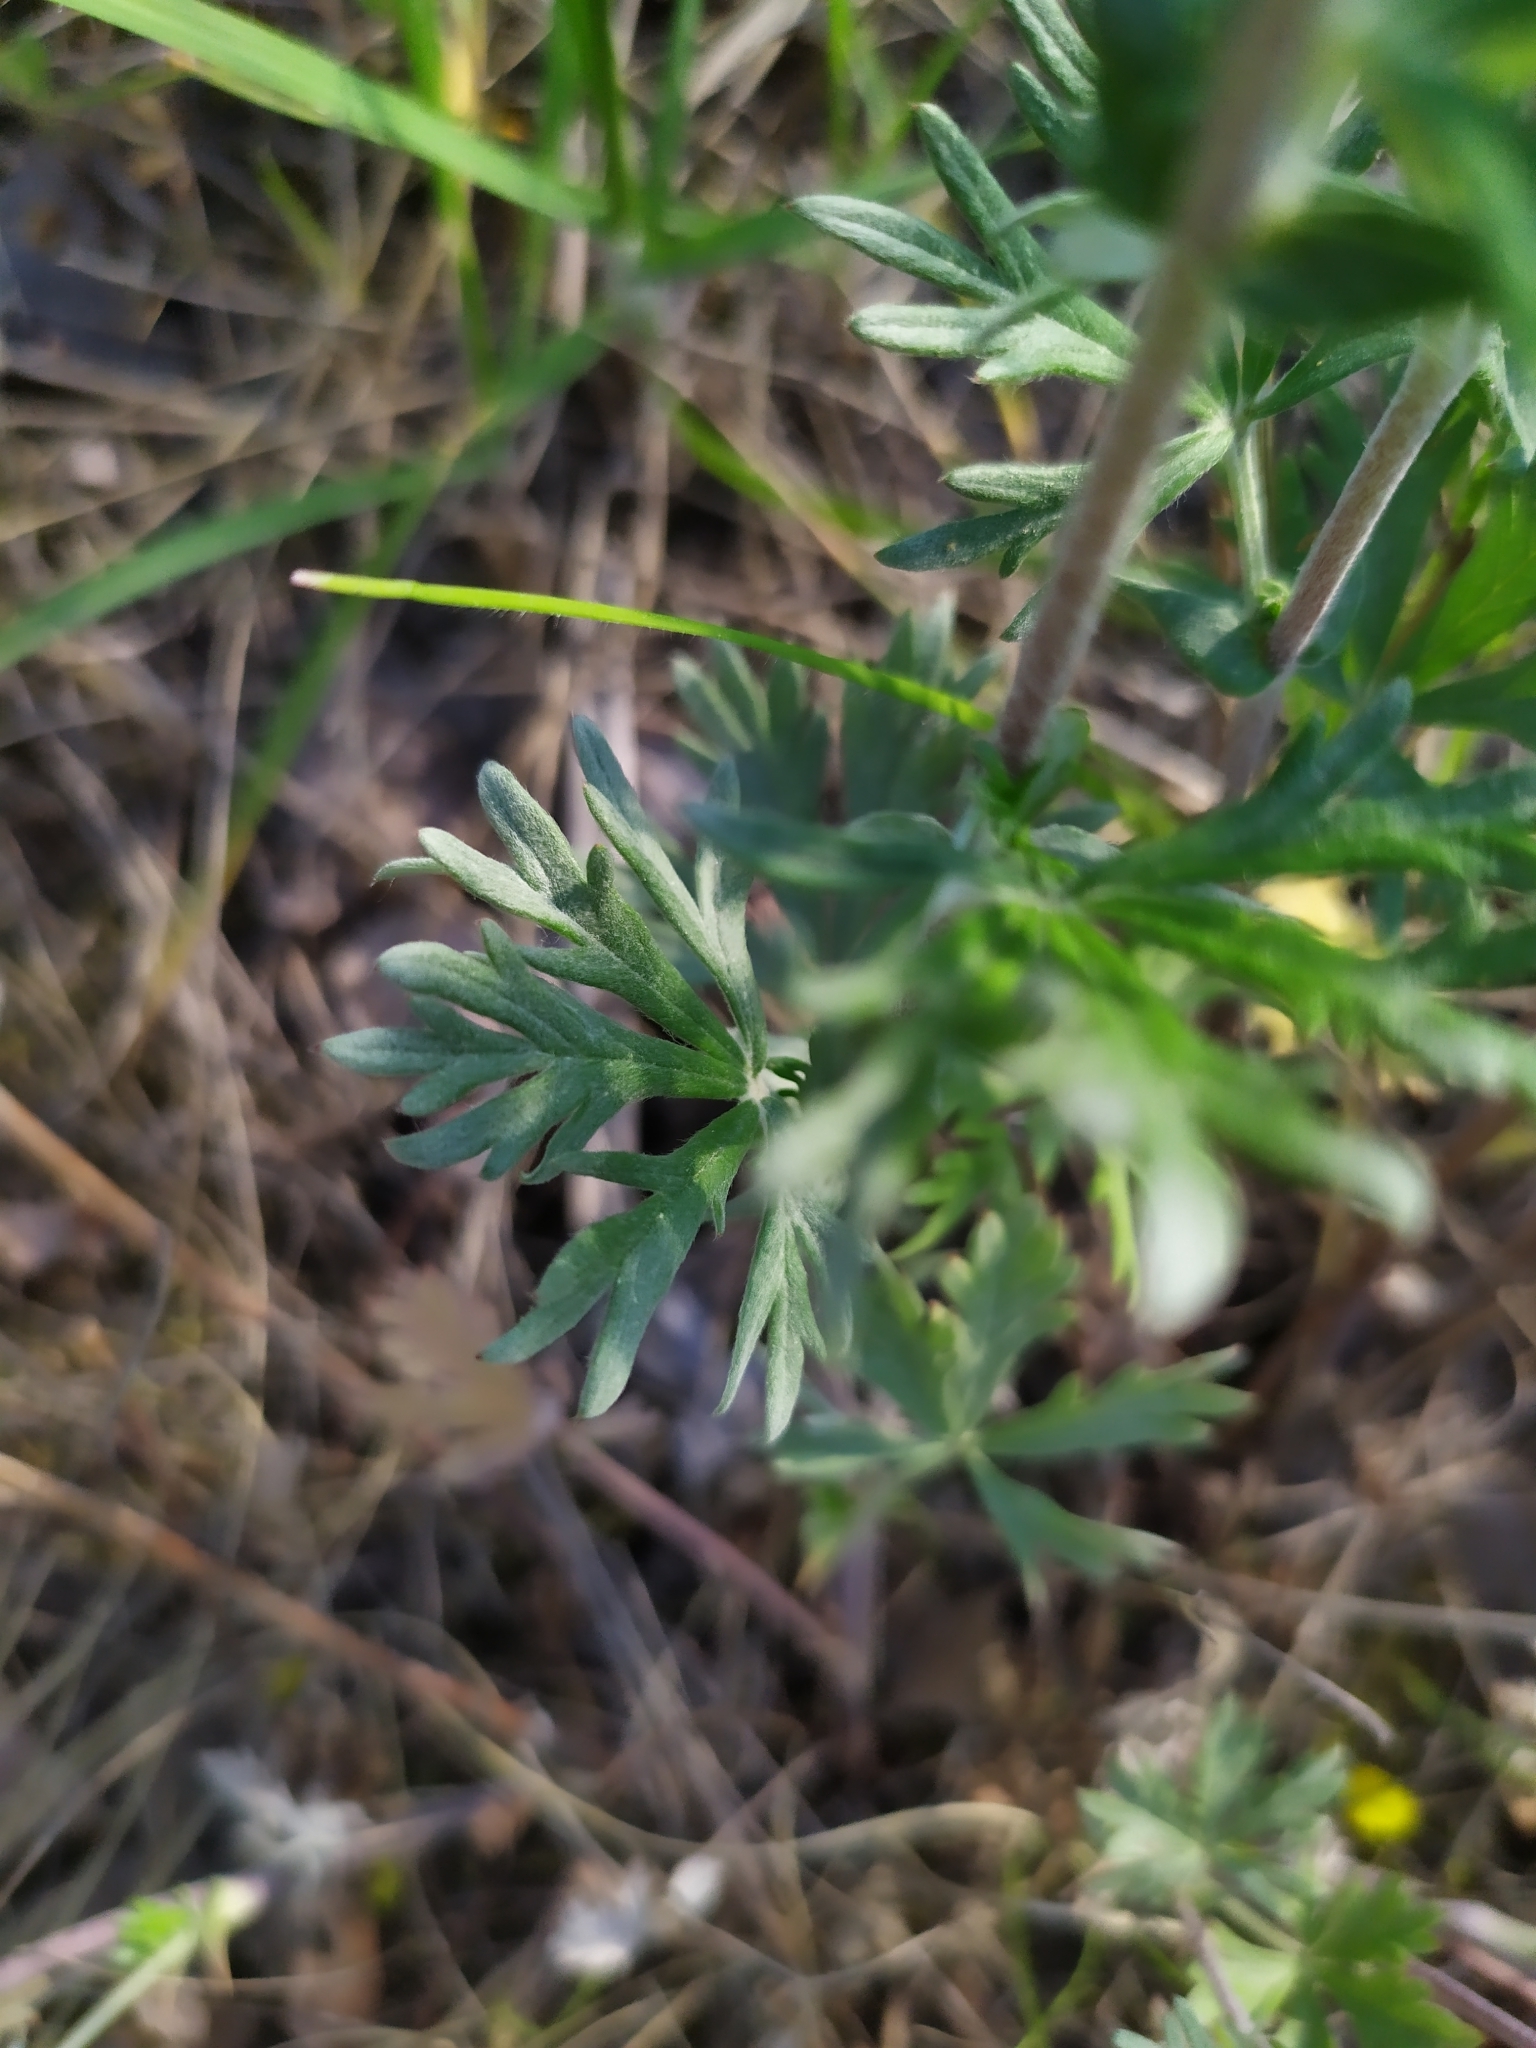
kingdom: Plantae
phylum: Tracheophyta
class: Magnoliopsida
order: Rosales
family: Rosaceae
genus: Potentilla
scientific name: Potentilla argentea
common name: Hoary cinquefoil
